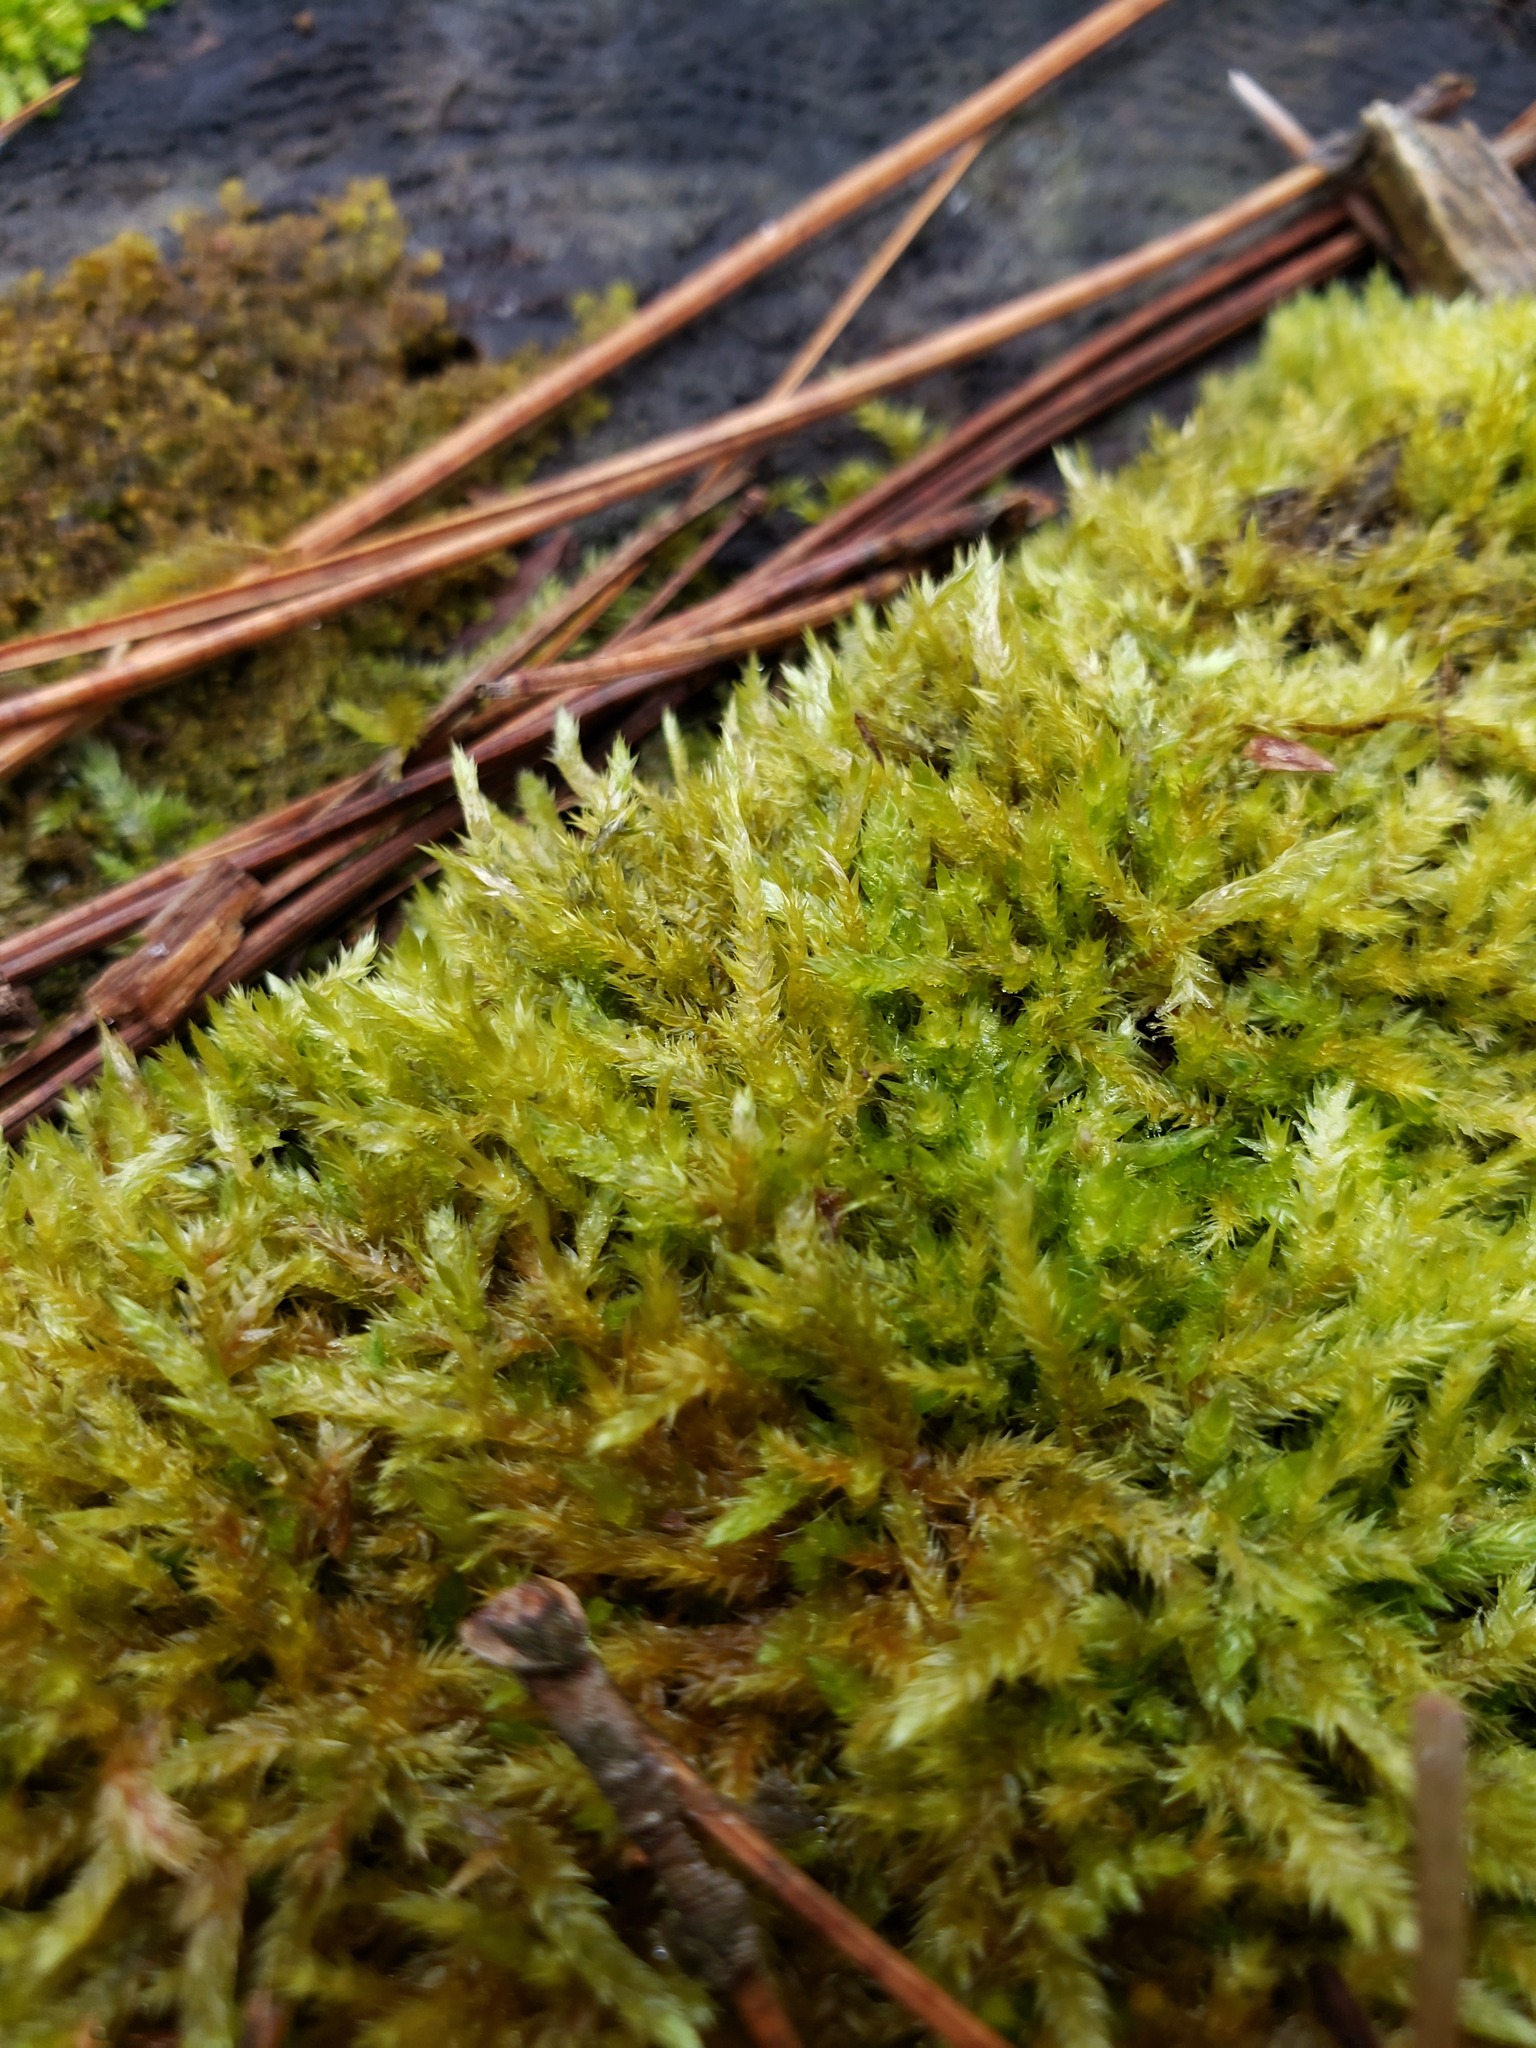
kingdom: Plantae
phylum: Bryophyta
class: Bryopsida
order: Hypnales
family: Callicladiaceae
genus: Callicladium
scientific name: Callicladium haldanianum
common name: Beautiful branch moss
